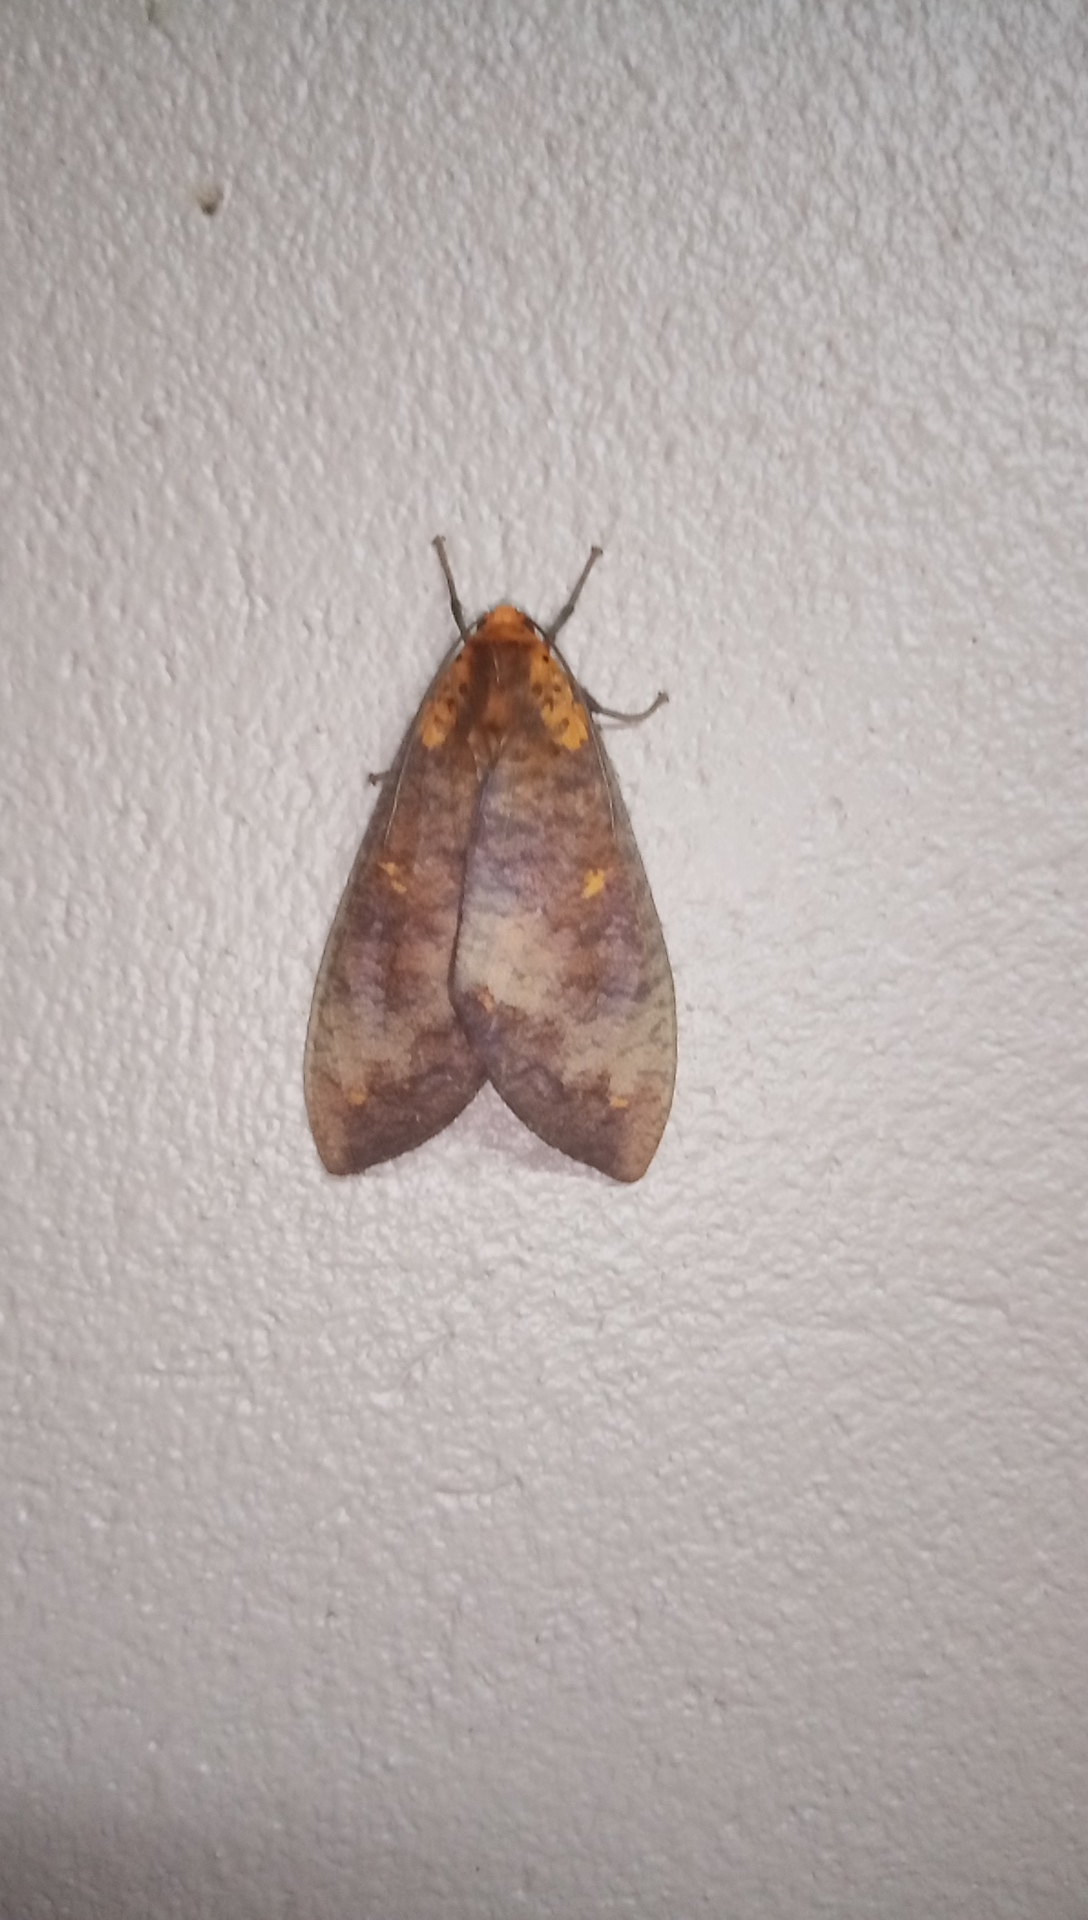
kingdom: Animalia
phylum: Arthropoda
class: Insecta
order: Lepidoptera
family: Erebidae
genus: Ammalo
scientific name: Ammalo helops
